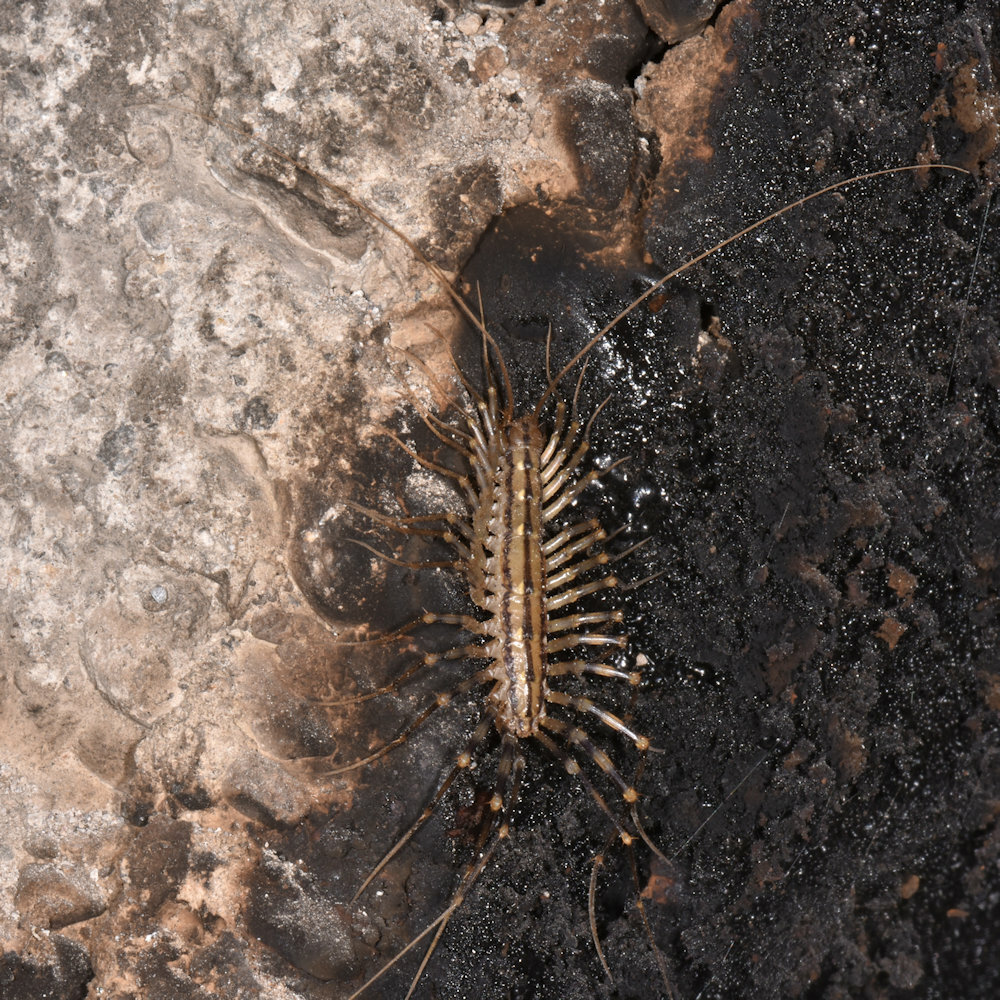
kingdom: Animalia
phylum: Arthropoda
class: Chilopoda
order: Scutigeromorpha
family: Scutigeridae
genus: Scutigera
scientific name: Scutigera coleoptrata
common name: House centipede
